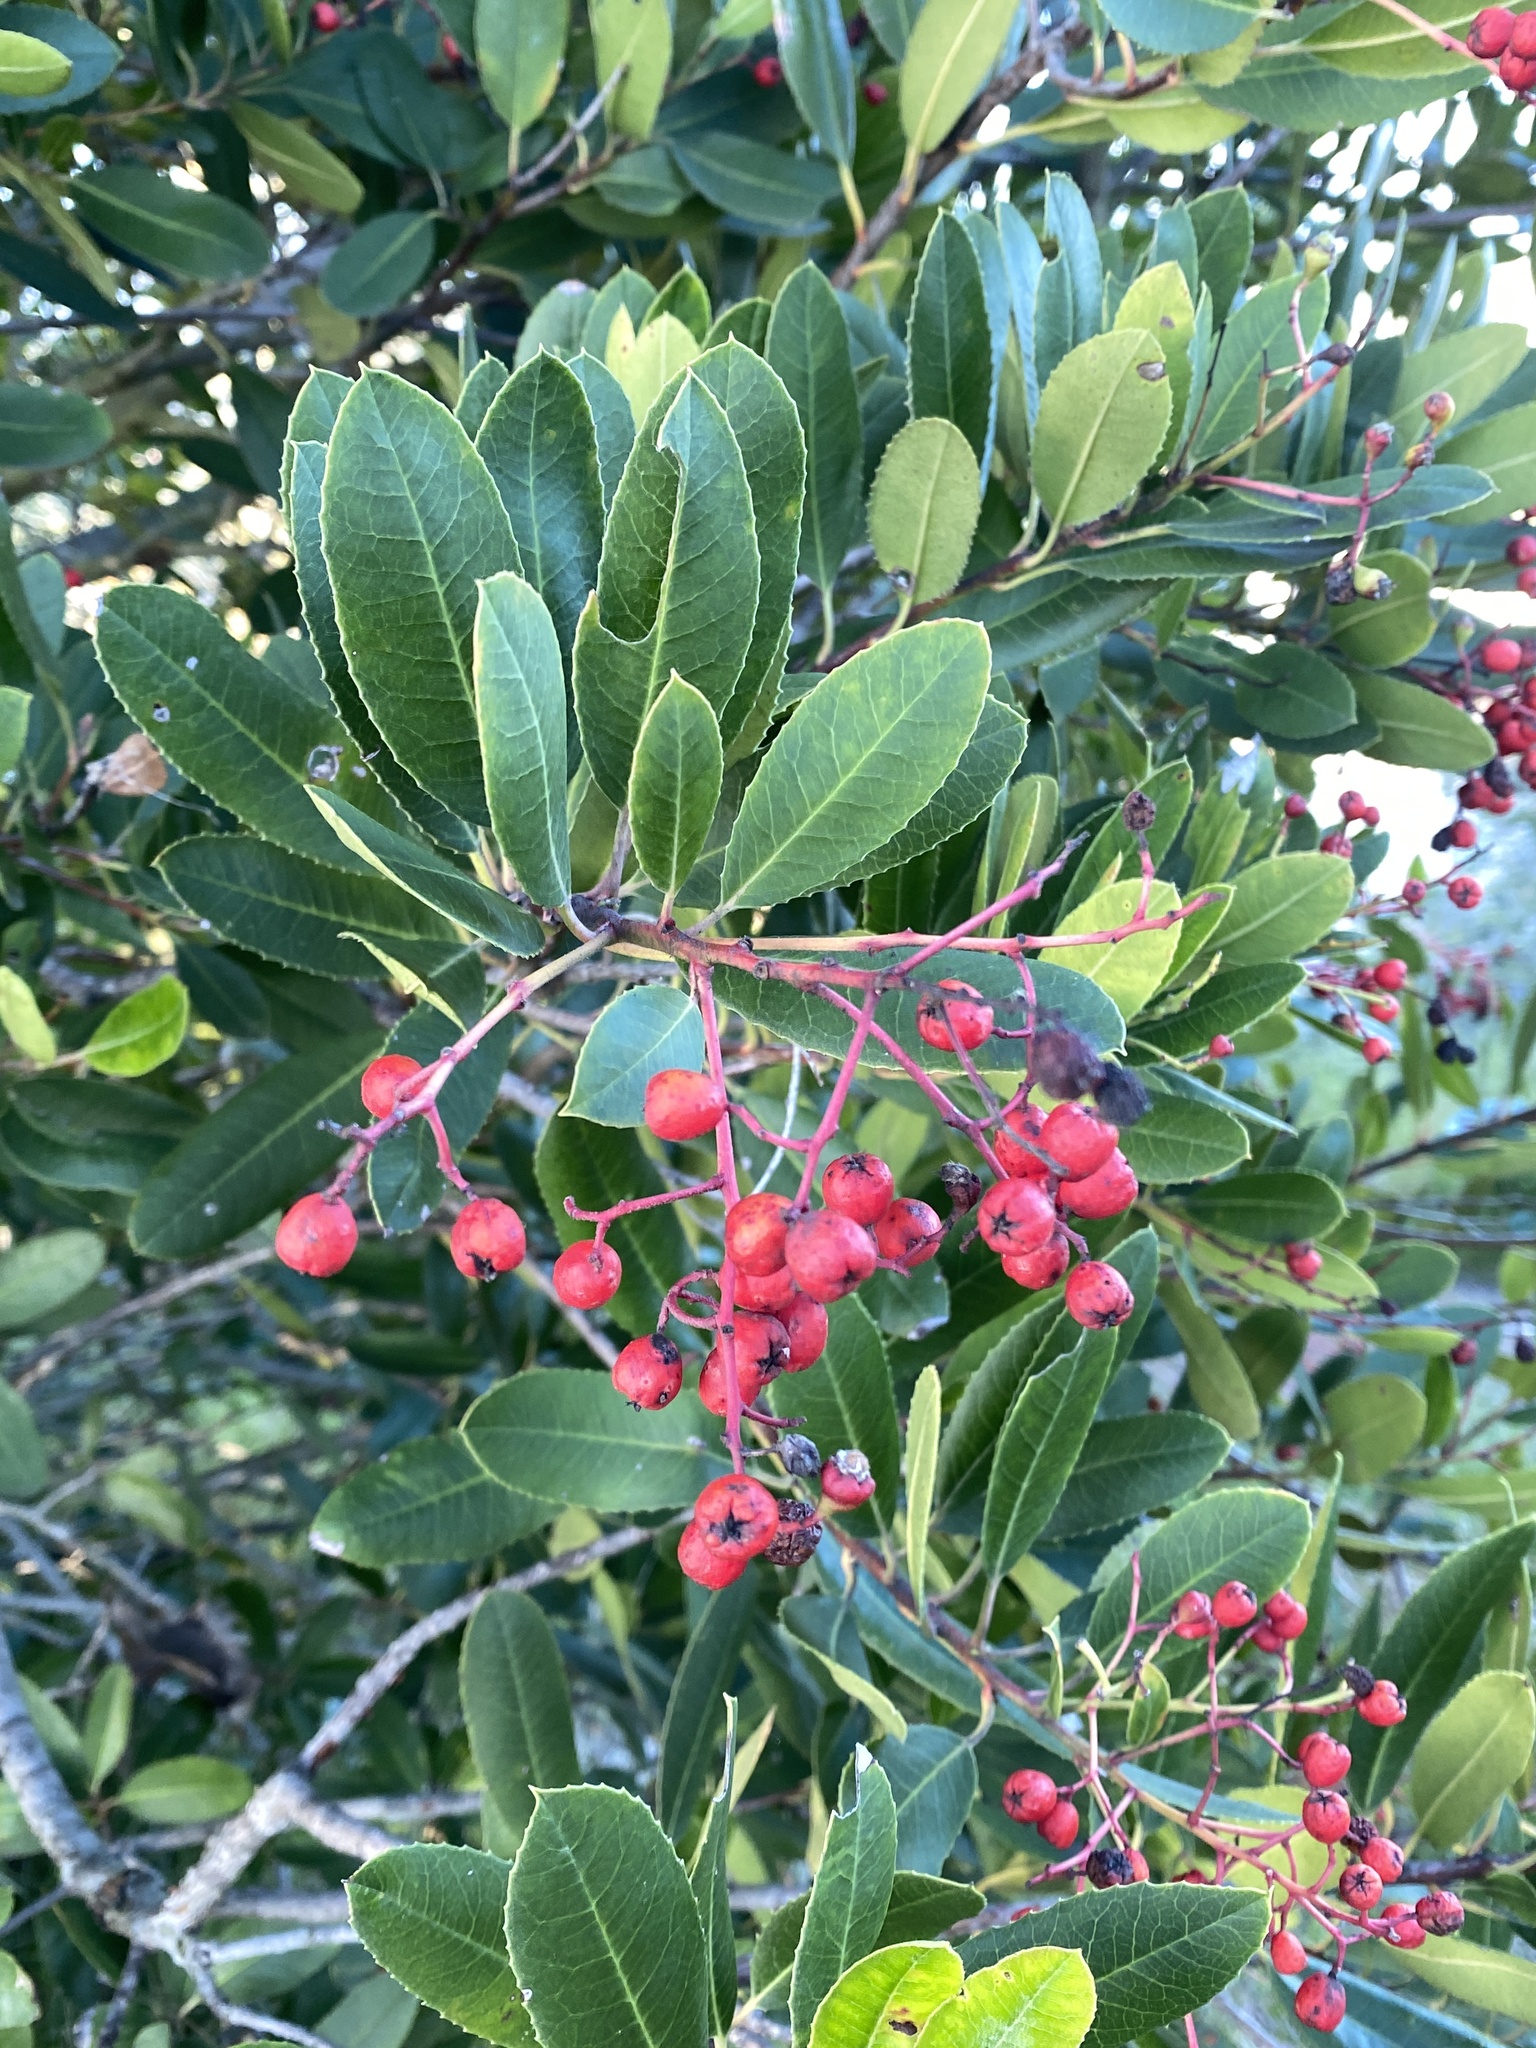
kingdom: Plantae
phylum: Tracheophyta
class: Magnoliopsida
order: Rosales
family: Rosaceae
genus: Heteromeles
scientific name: Heteromeles arbutifolia
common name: California-holly
